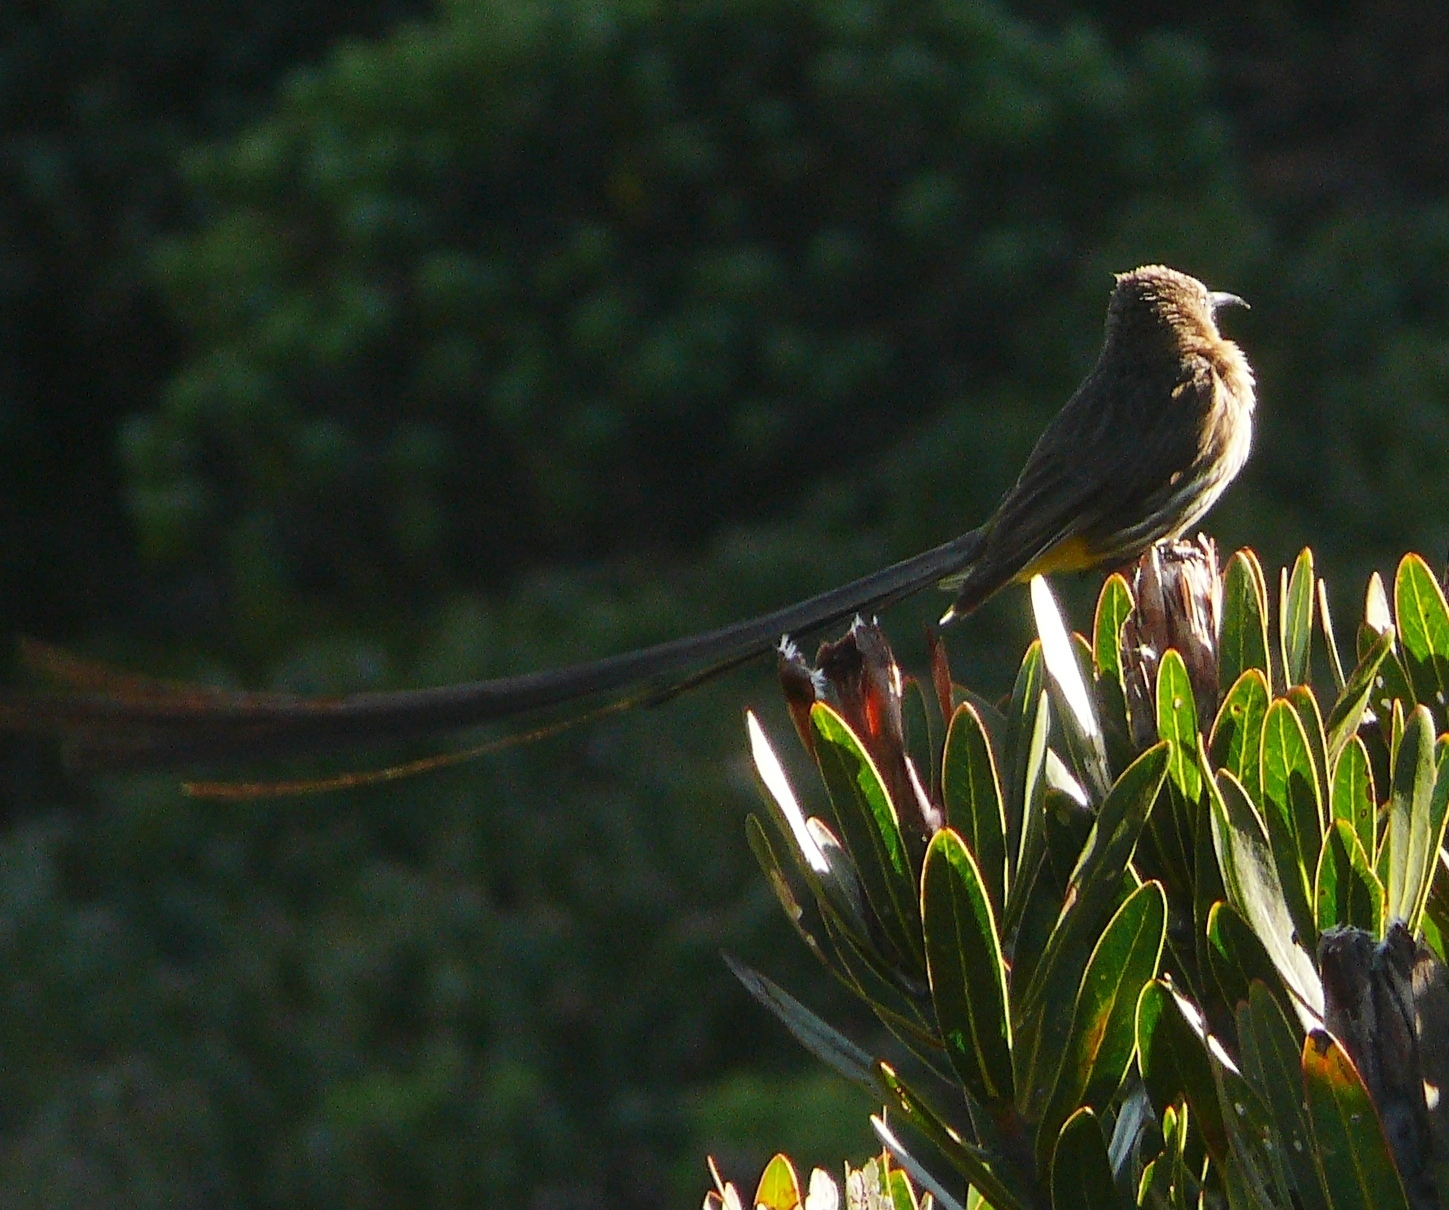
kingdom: Animalia
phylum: Chordata
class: Aves
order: Passeriformes
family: Promeropidae
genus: Promerops
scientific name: Promerops cafer
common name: Cape sugarbird
